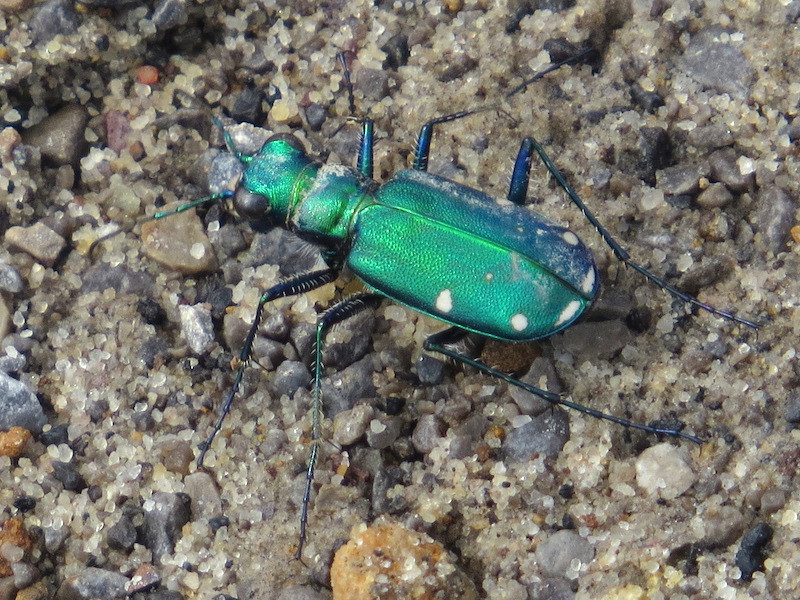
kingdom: Animalia
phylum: Arthropoda
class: Insecta
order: Coleoptera
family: Carabidae
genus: Cicindela
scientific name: Cicindela sexguttata
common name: Six-spotted tiger beetle
